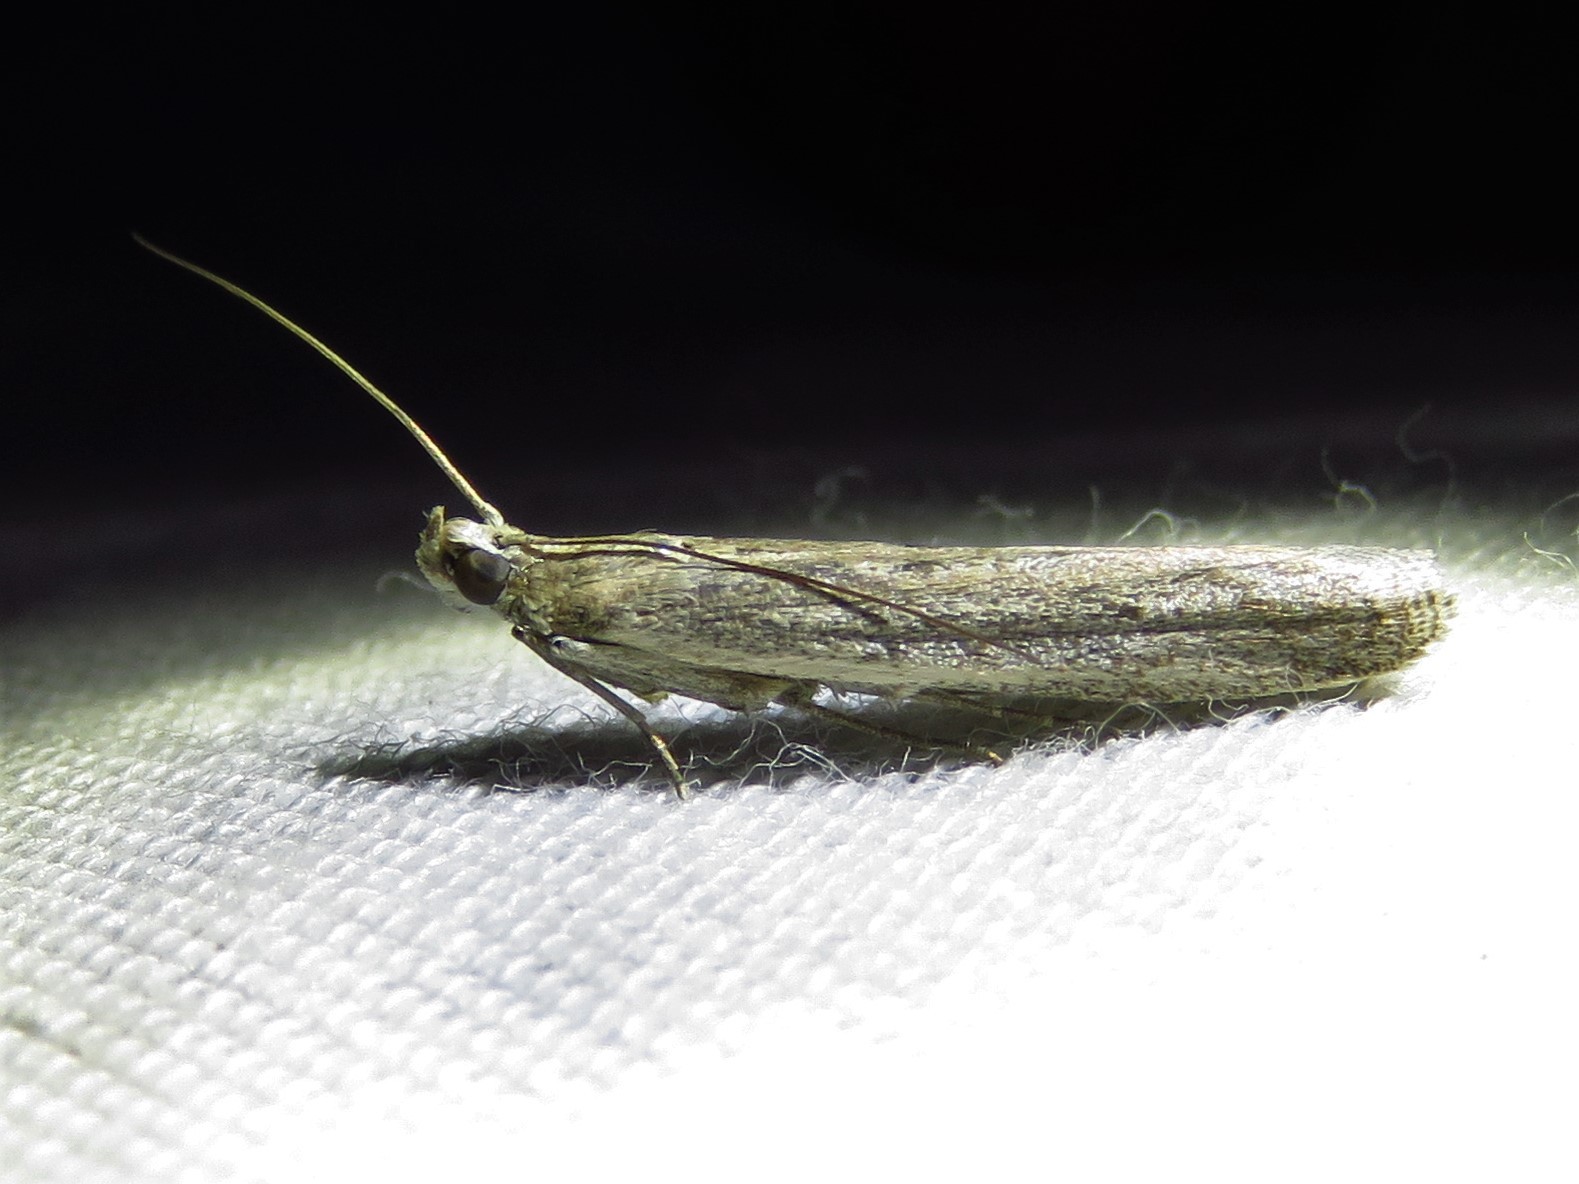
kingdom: Animalia
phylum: Arthropoda
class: Insecta
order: Lepidoptera
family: Pyralidae
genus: Homoeosoma
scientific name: Homoeosoma electella
